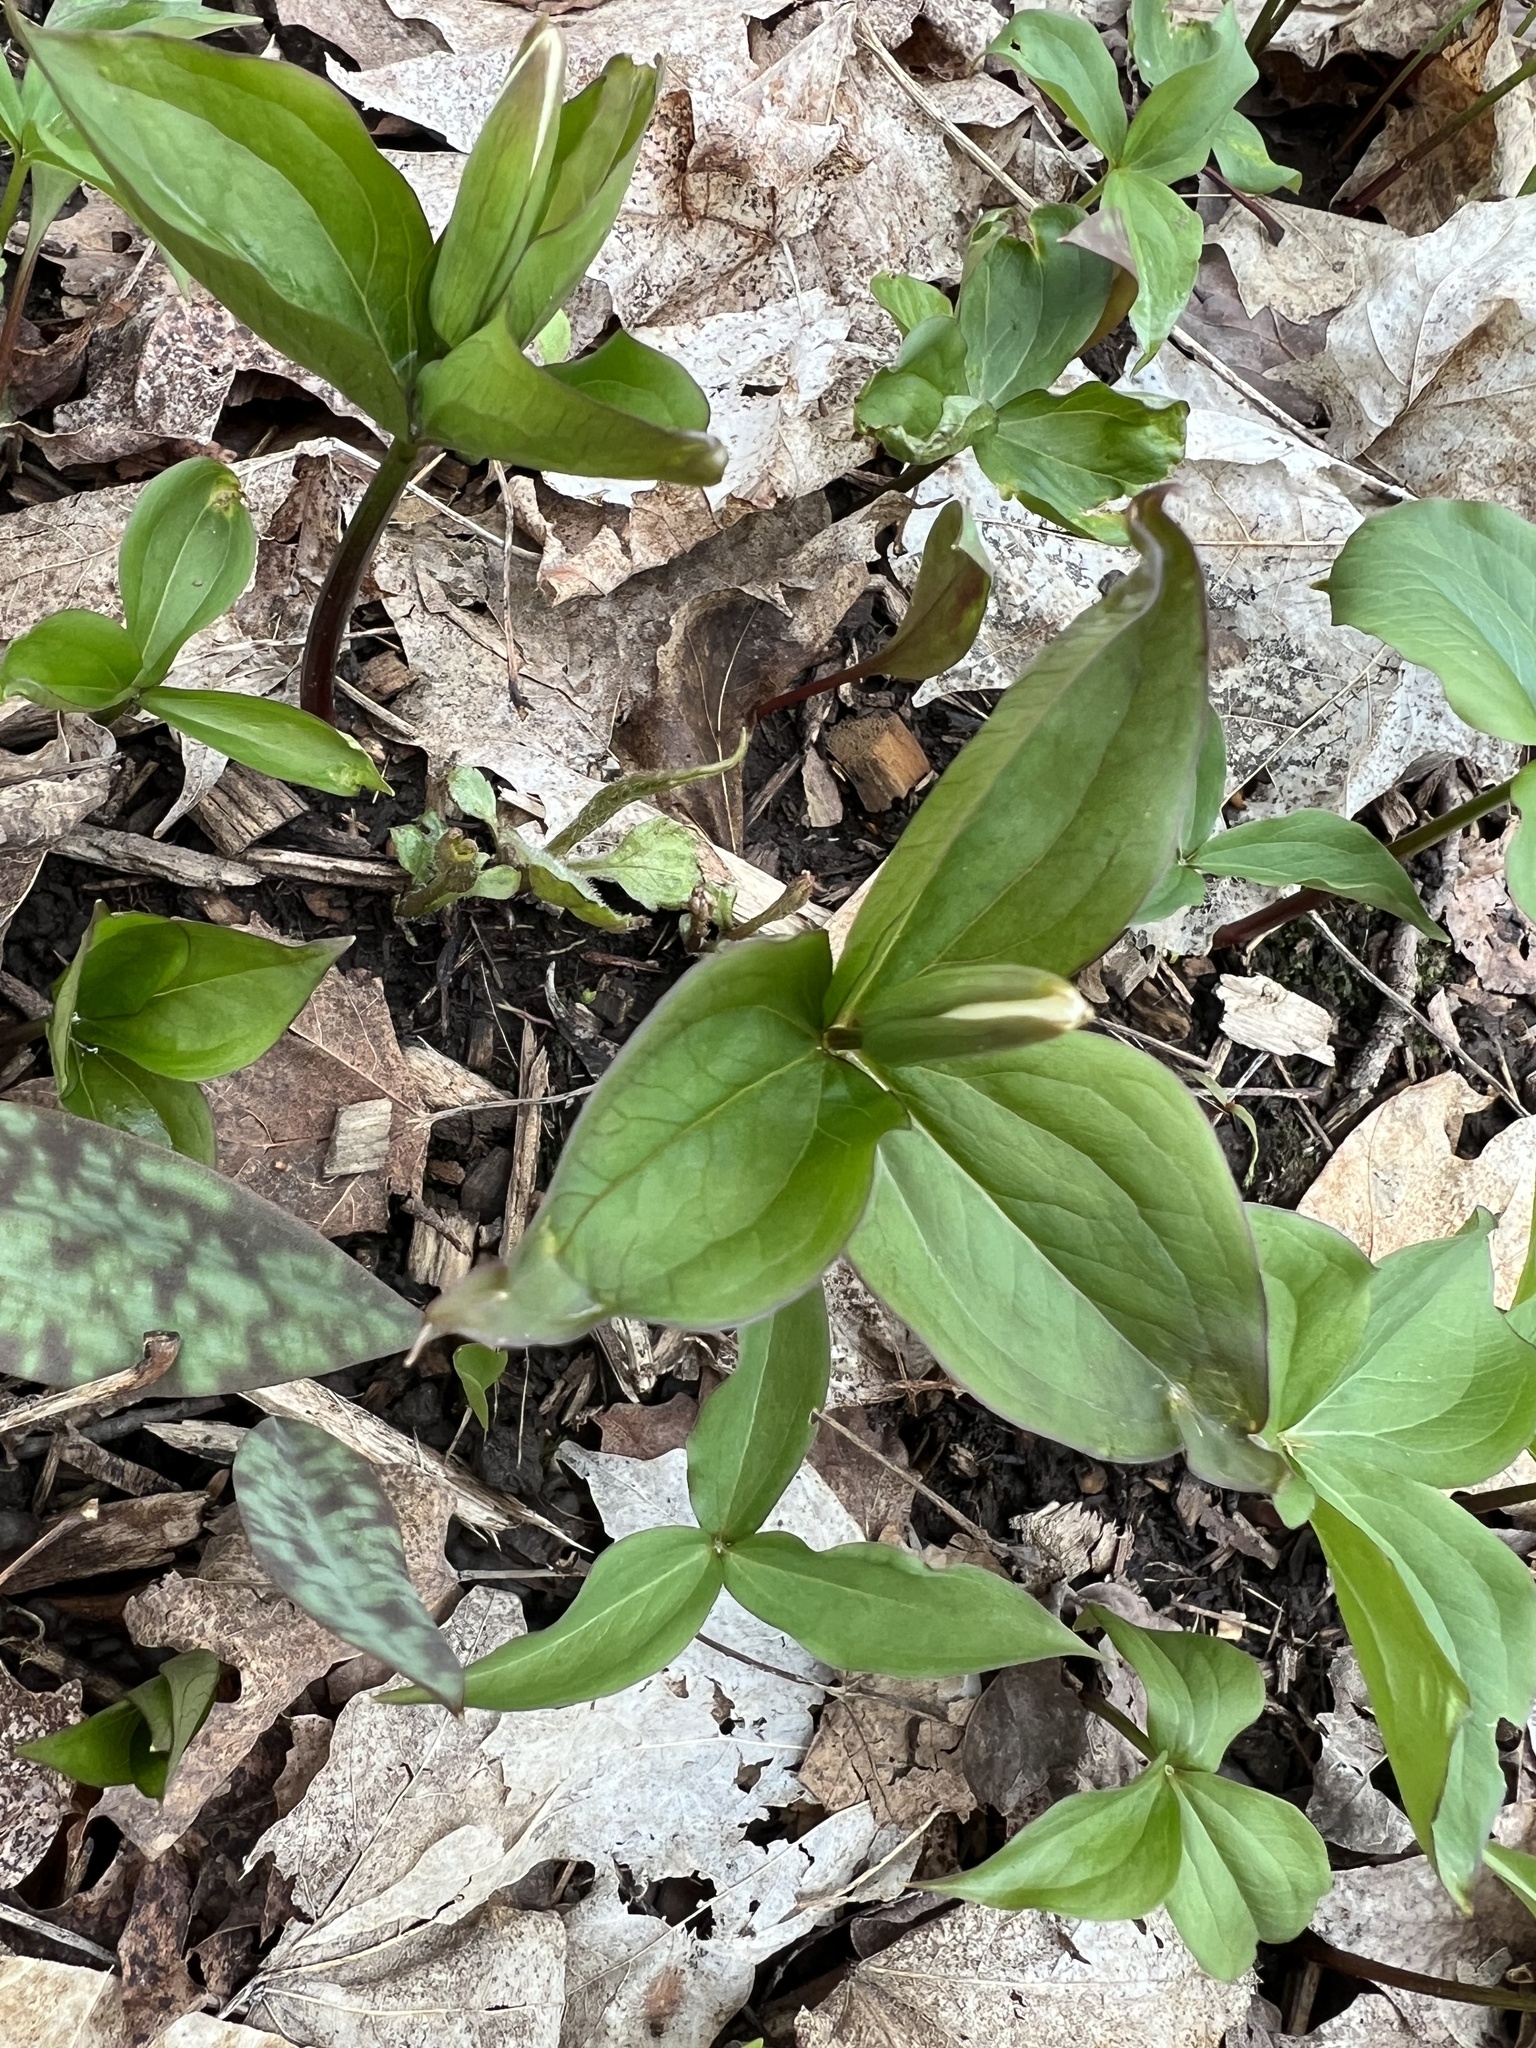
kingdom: Plantae
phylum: Tracheophyta
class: Liliopsida
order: Liliales
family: Melanthiaceae
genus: Trillium
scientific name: Trillium grandiflorum
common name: Great white trillium
